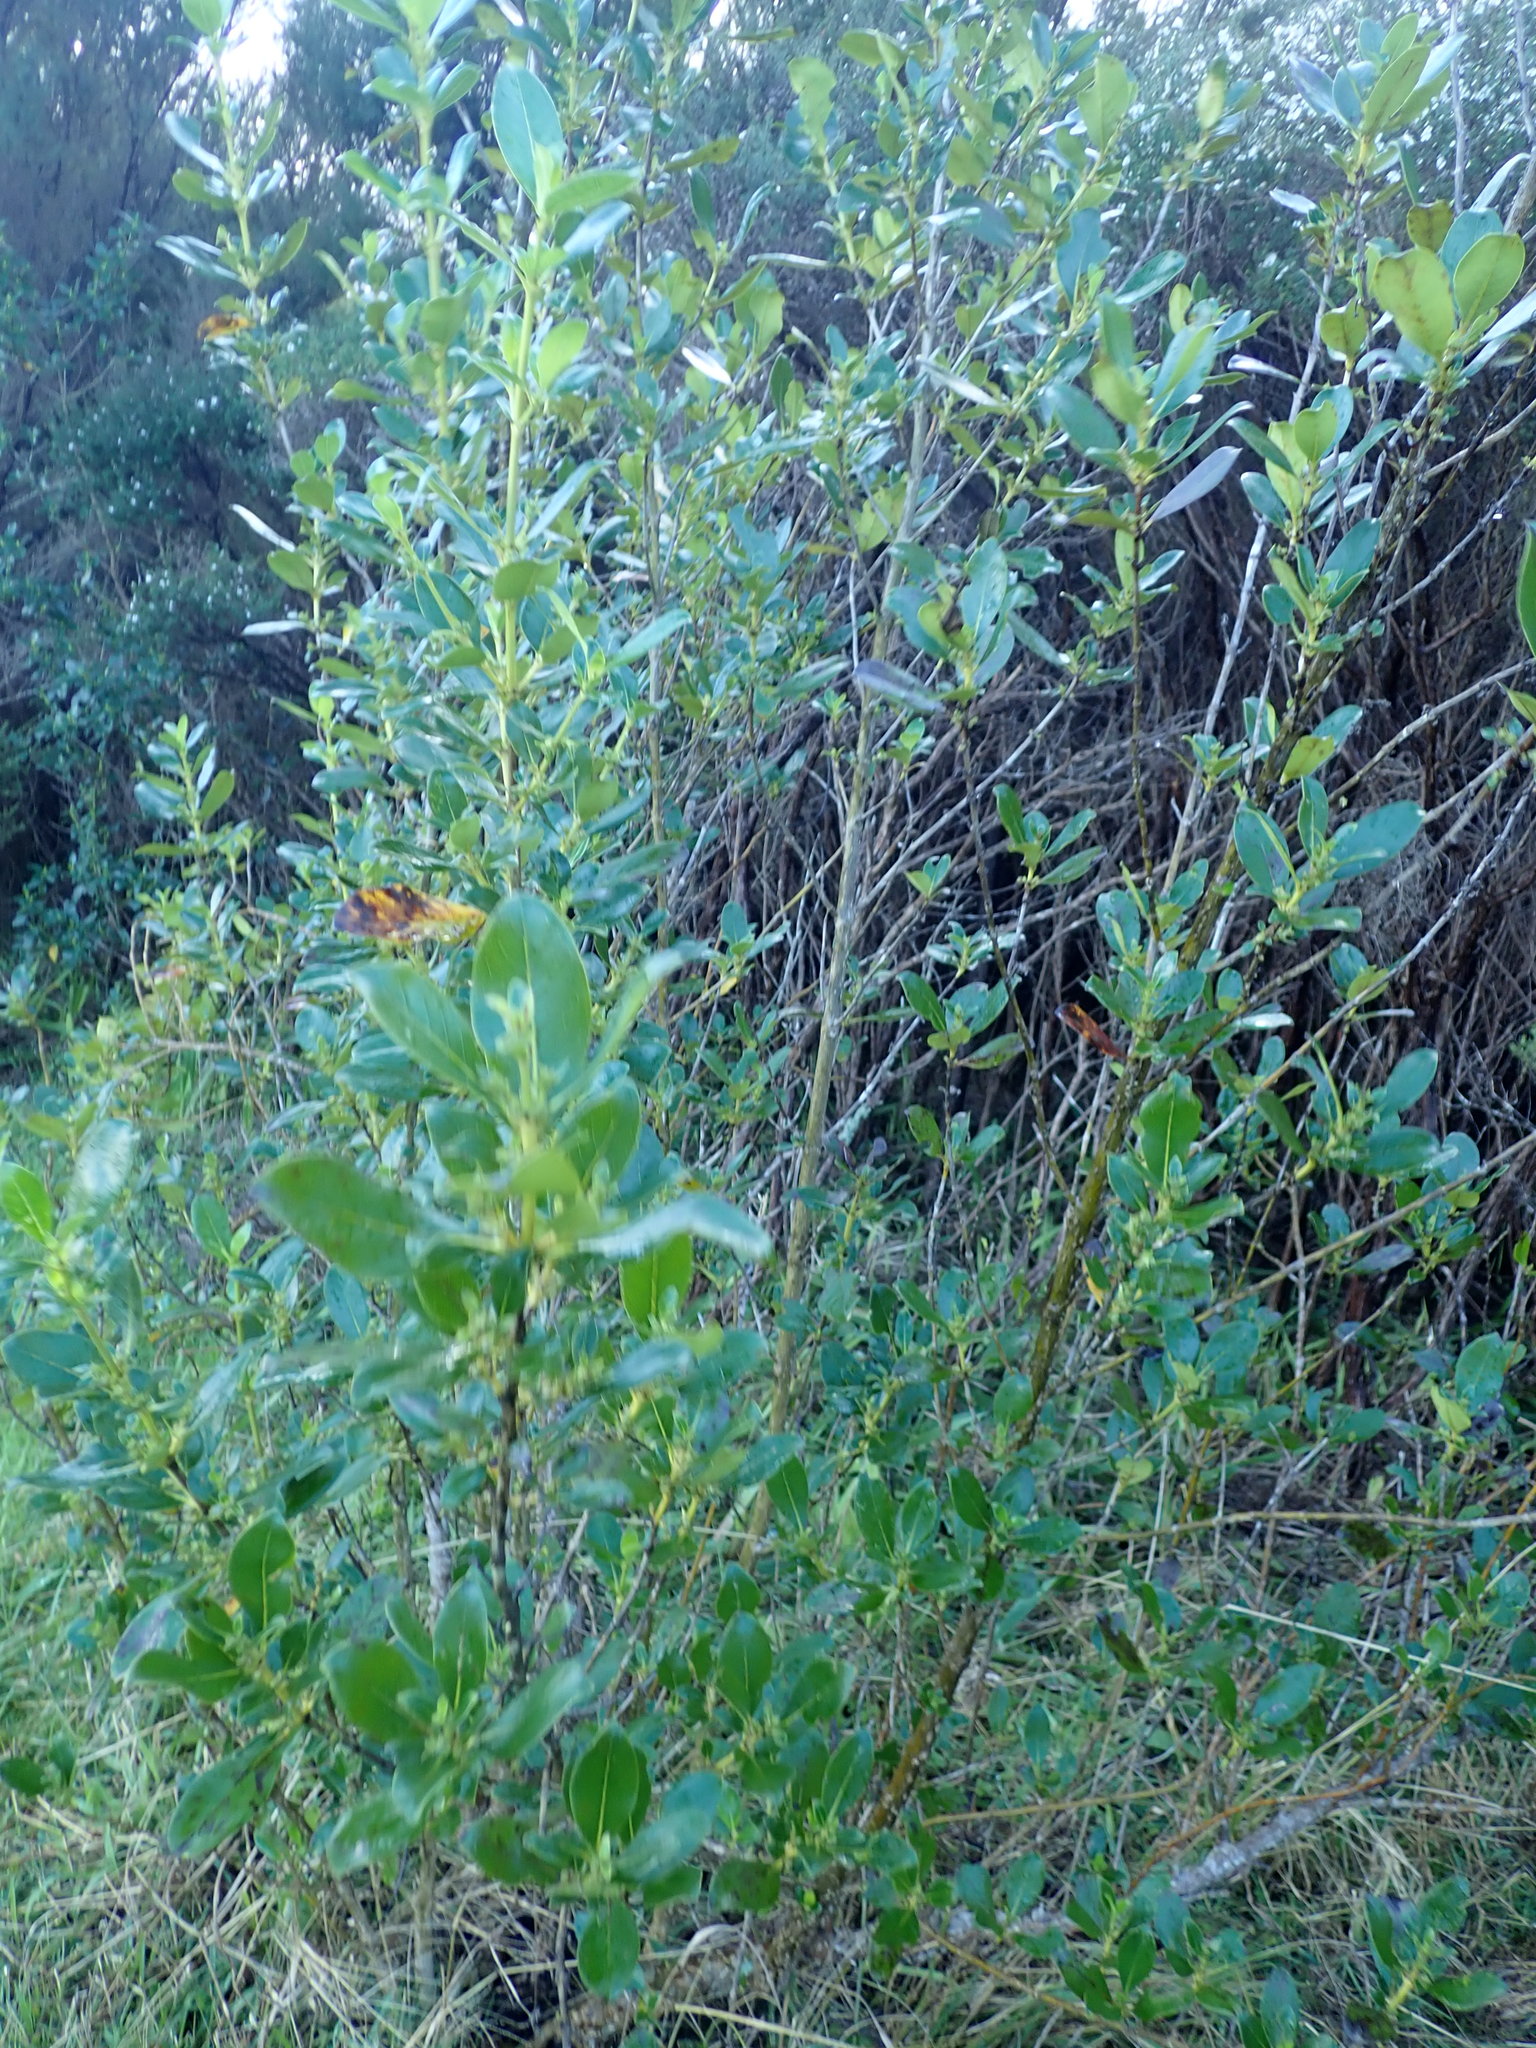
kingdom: Plantae
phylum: Tracheophyta
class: Magnoliopsida
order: Gentianales
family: Rubiaceae
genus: Coprosma
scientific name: Coprosma robusta
